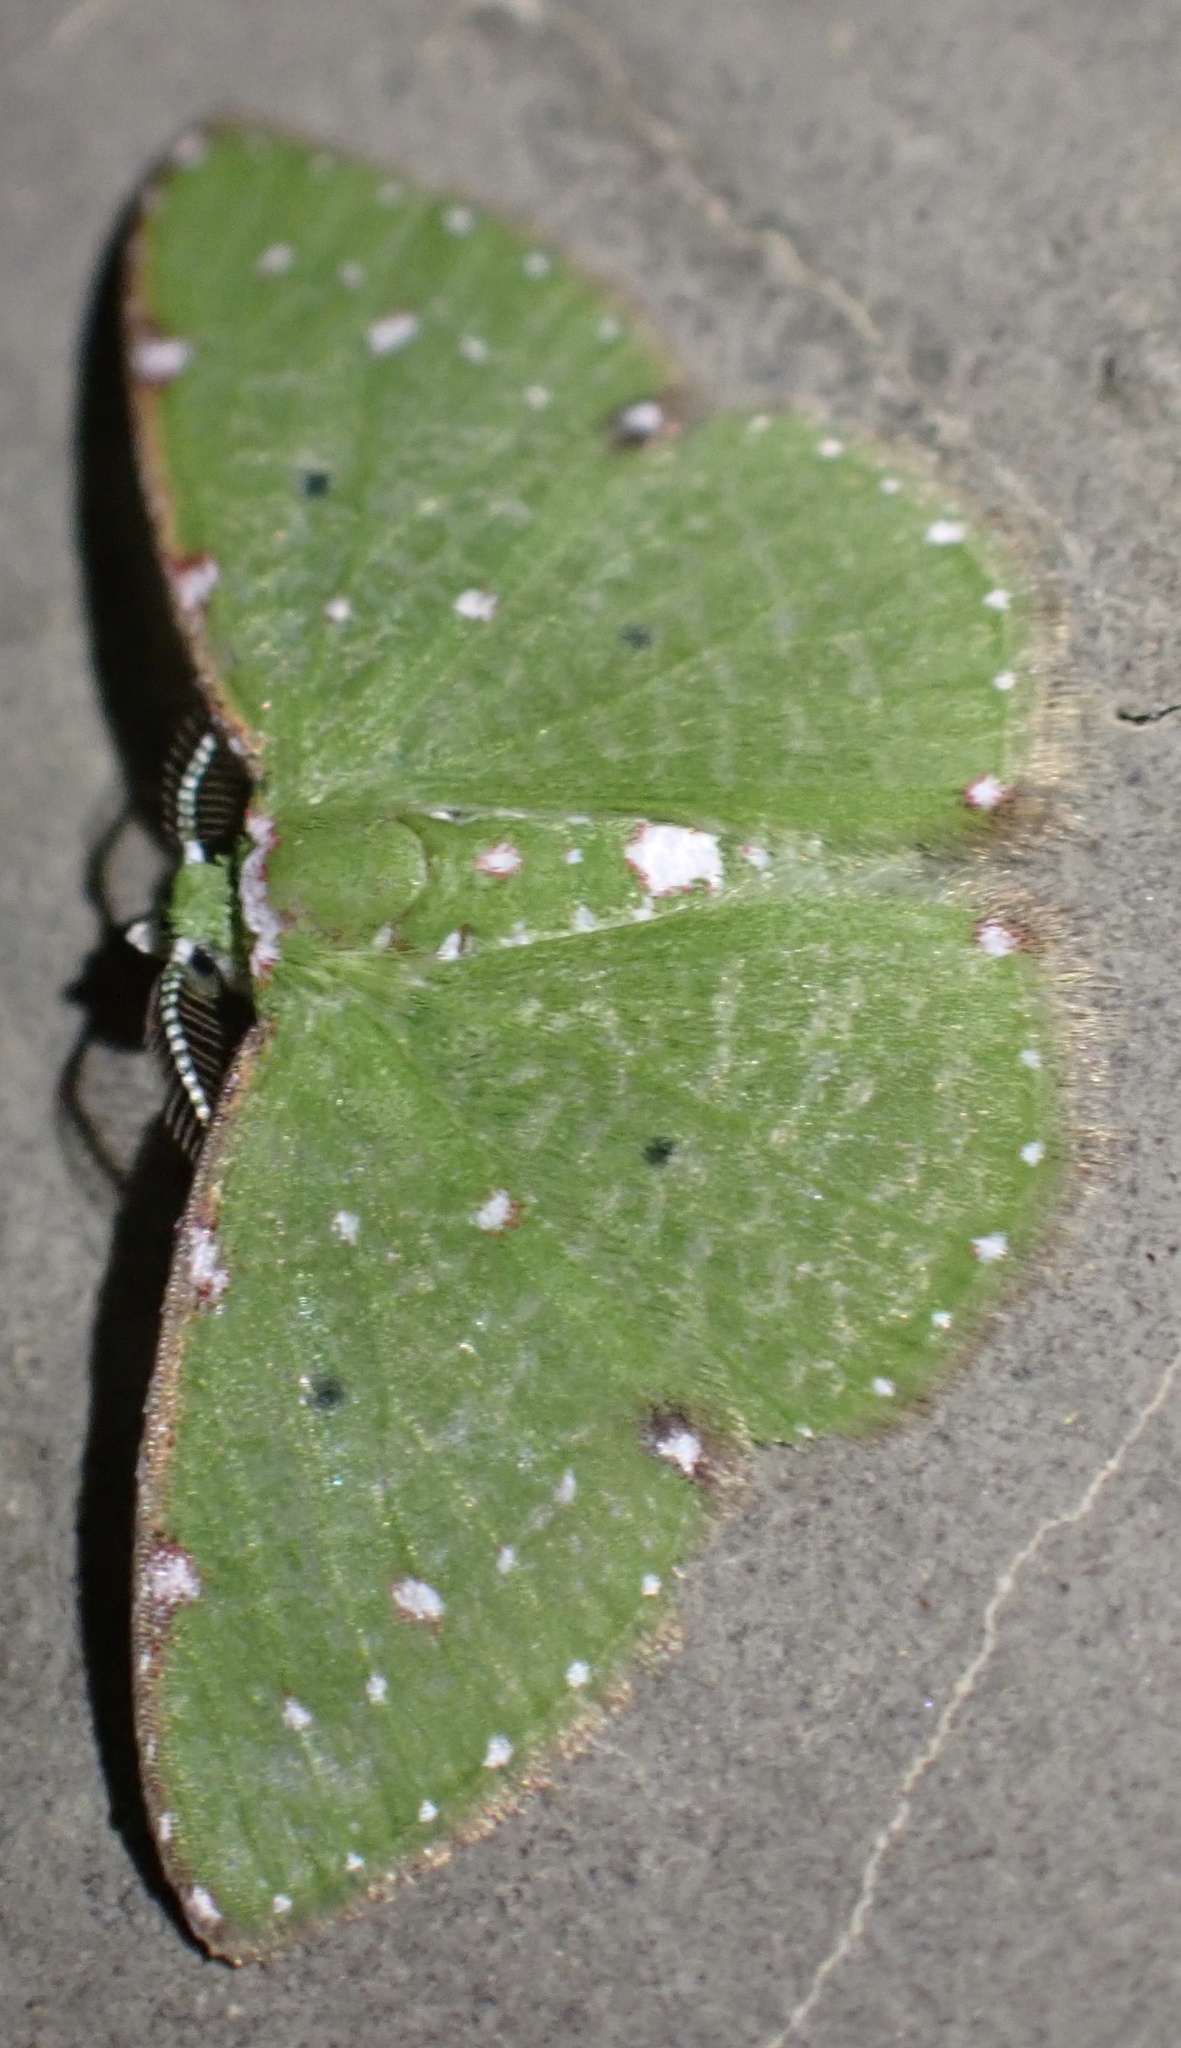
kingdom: Animalia
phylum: Arthropoda
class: Insecta
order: Lepidoptera
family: Geometridae
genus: Comibaena
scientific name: Comibaena viridifimbria
